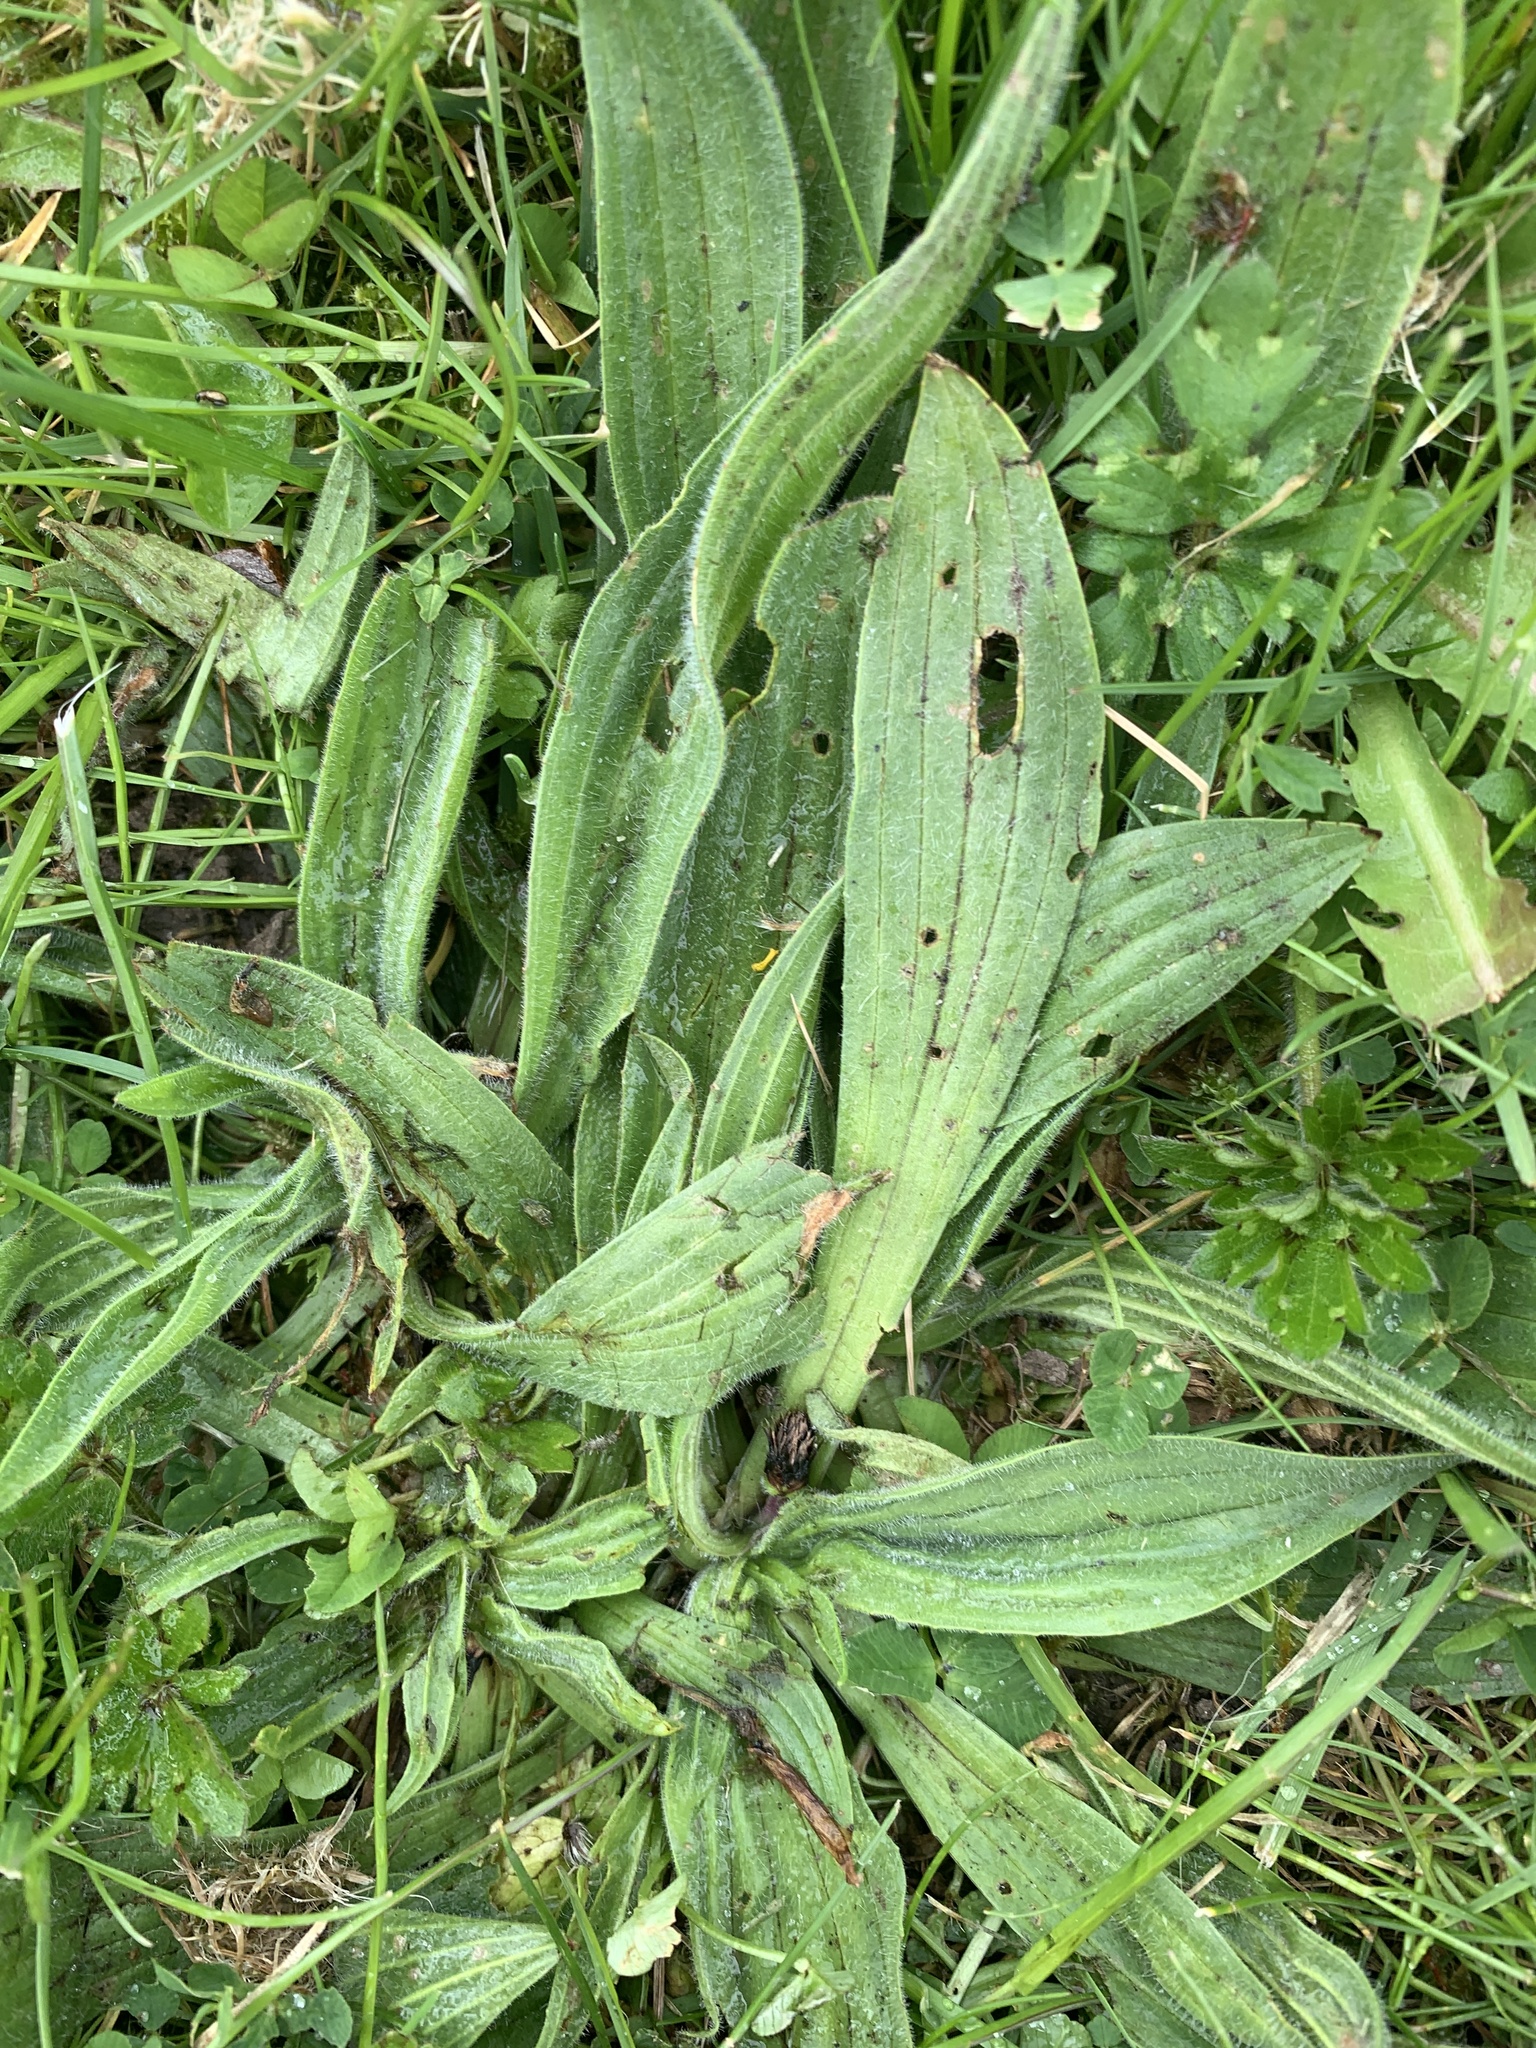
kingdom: Plantae
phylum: Tracheophyta
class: Magnoliopsida
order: Lamiales
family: Plantaginaceae
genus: Plantago
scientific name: Plantago lanceolata
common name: Ribwort plantain
